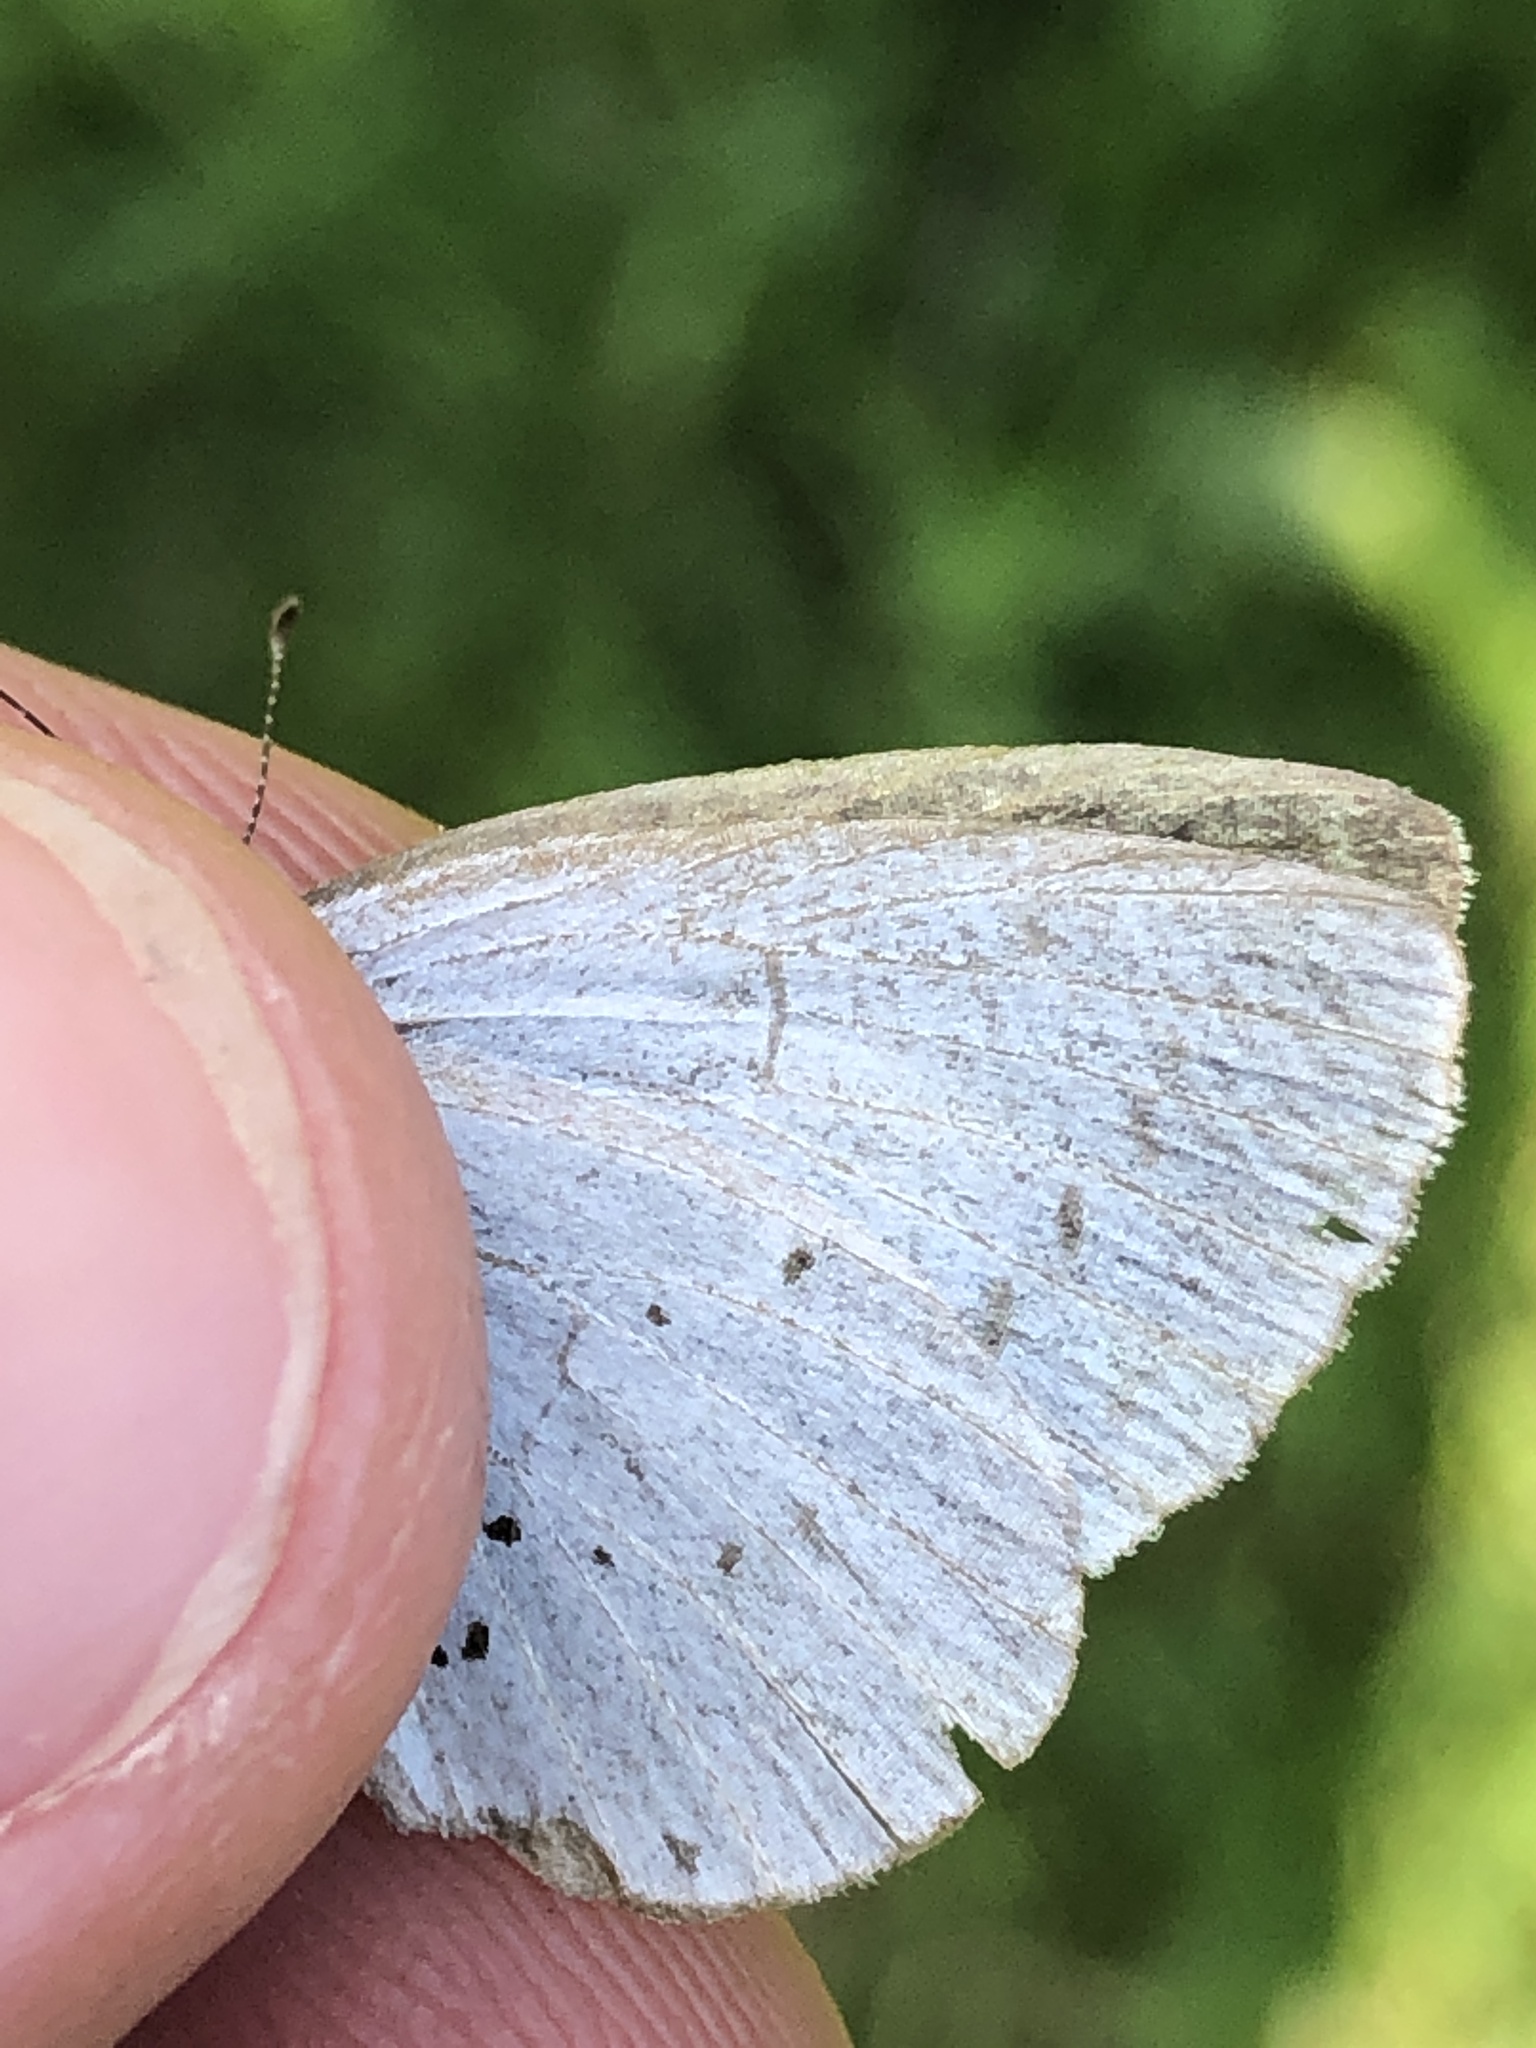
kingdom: Animalia
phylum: Arthropoda
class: Insecta
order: Lepidoptera
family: Lycaenidae
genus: Celastrina
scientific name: Celastrina argiolus
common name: Holly blue
